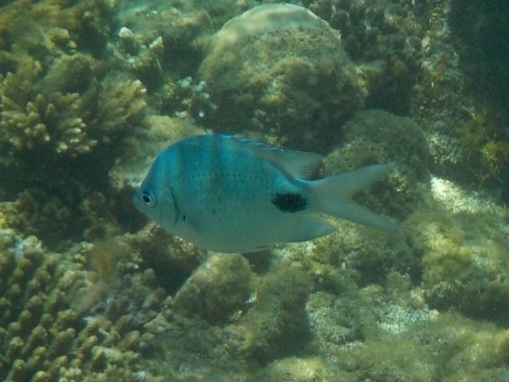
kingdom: Animalia
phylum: Chordata
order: Perciformes
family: Pomacentridae
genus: Abudefduf
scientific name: Abudefduf sparoides
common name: False-eye sergeant
